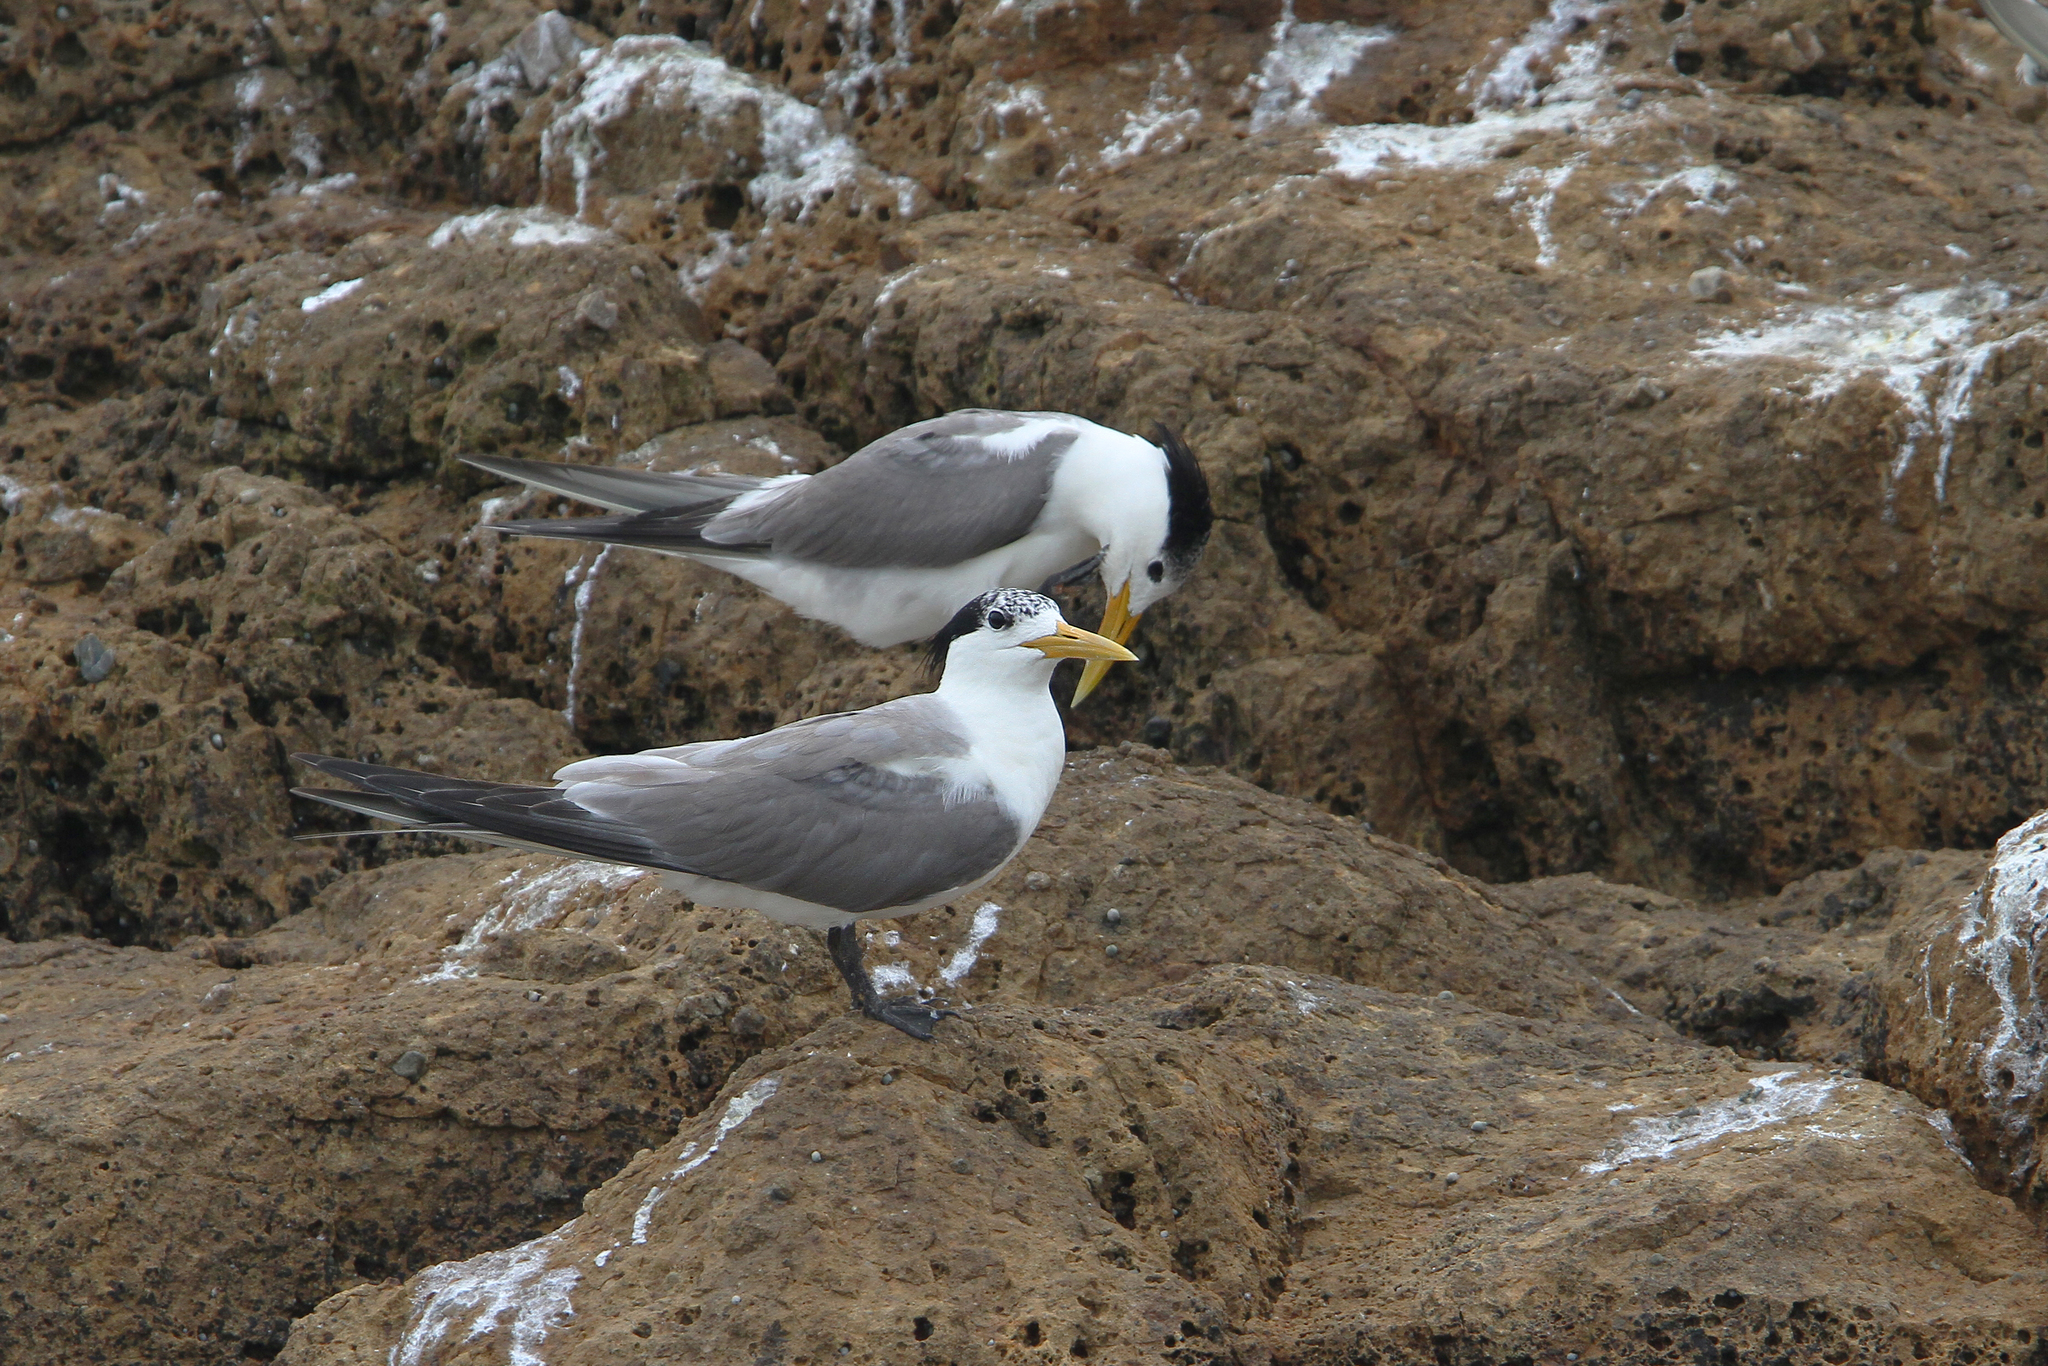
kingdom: Animalia
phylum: Chordata
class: Aves
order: Charadriiformes
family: Laridae
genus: Thalasseus
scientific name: Thalasseus bergii
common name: Greater crested tern
